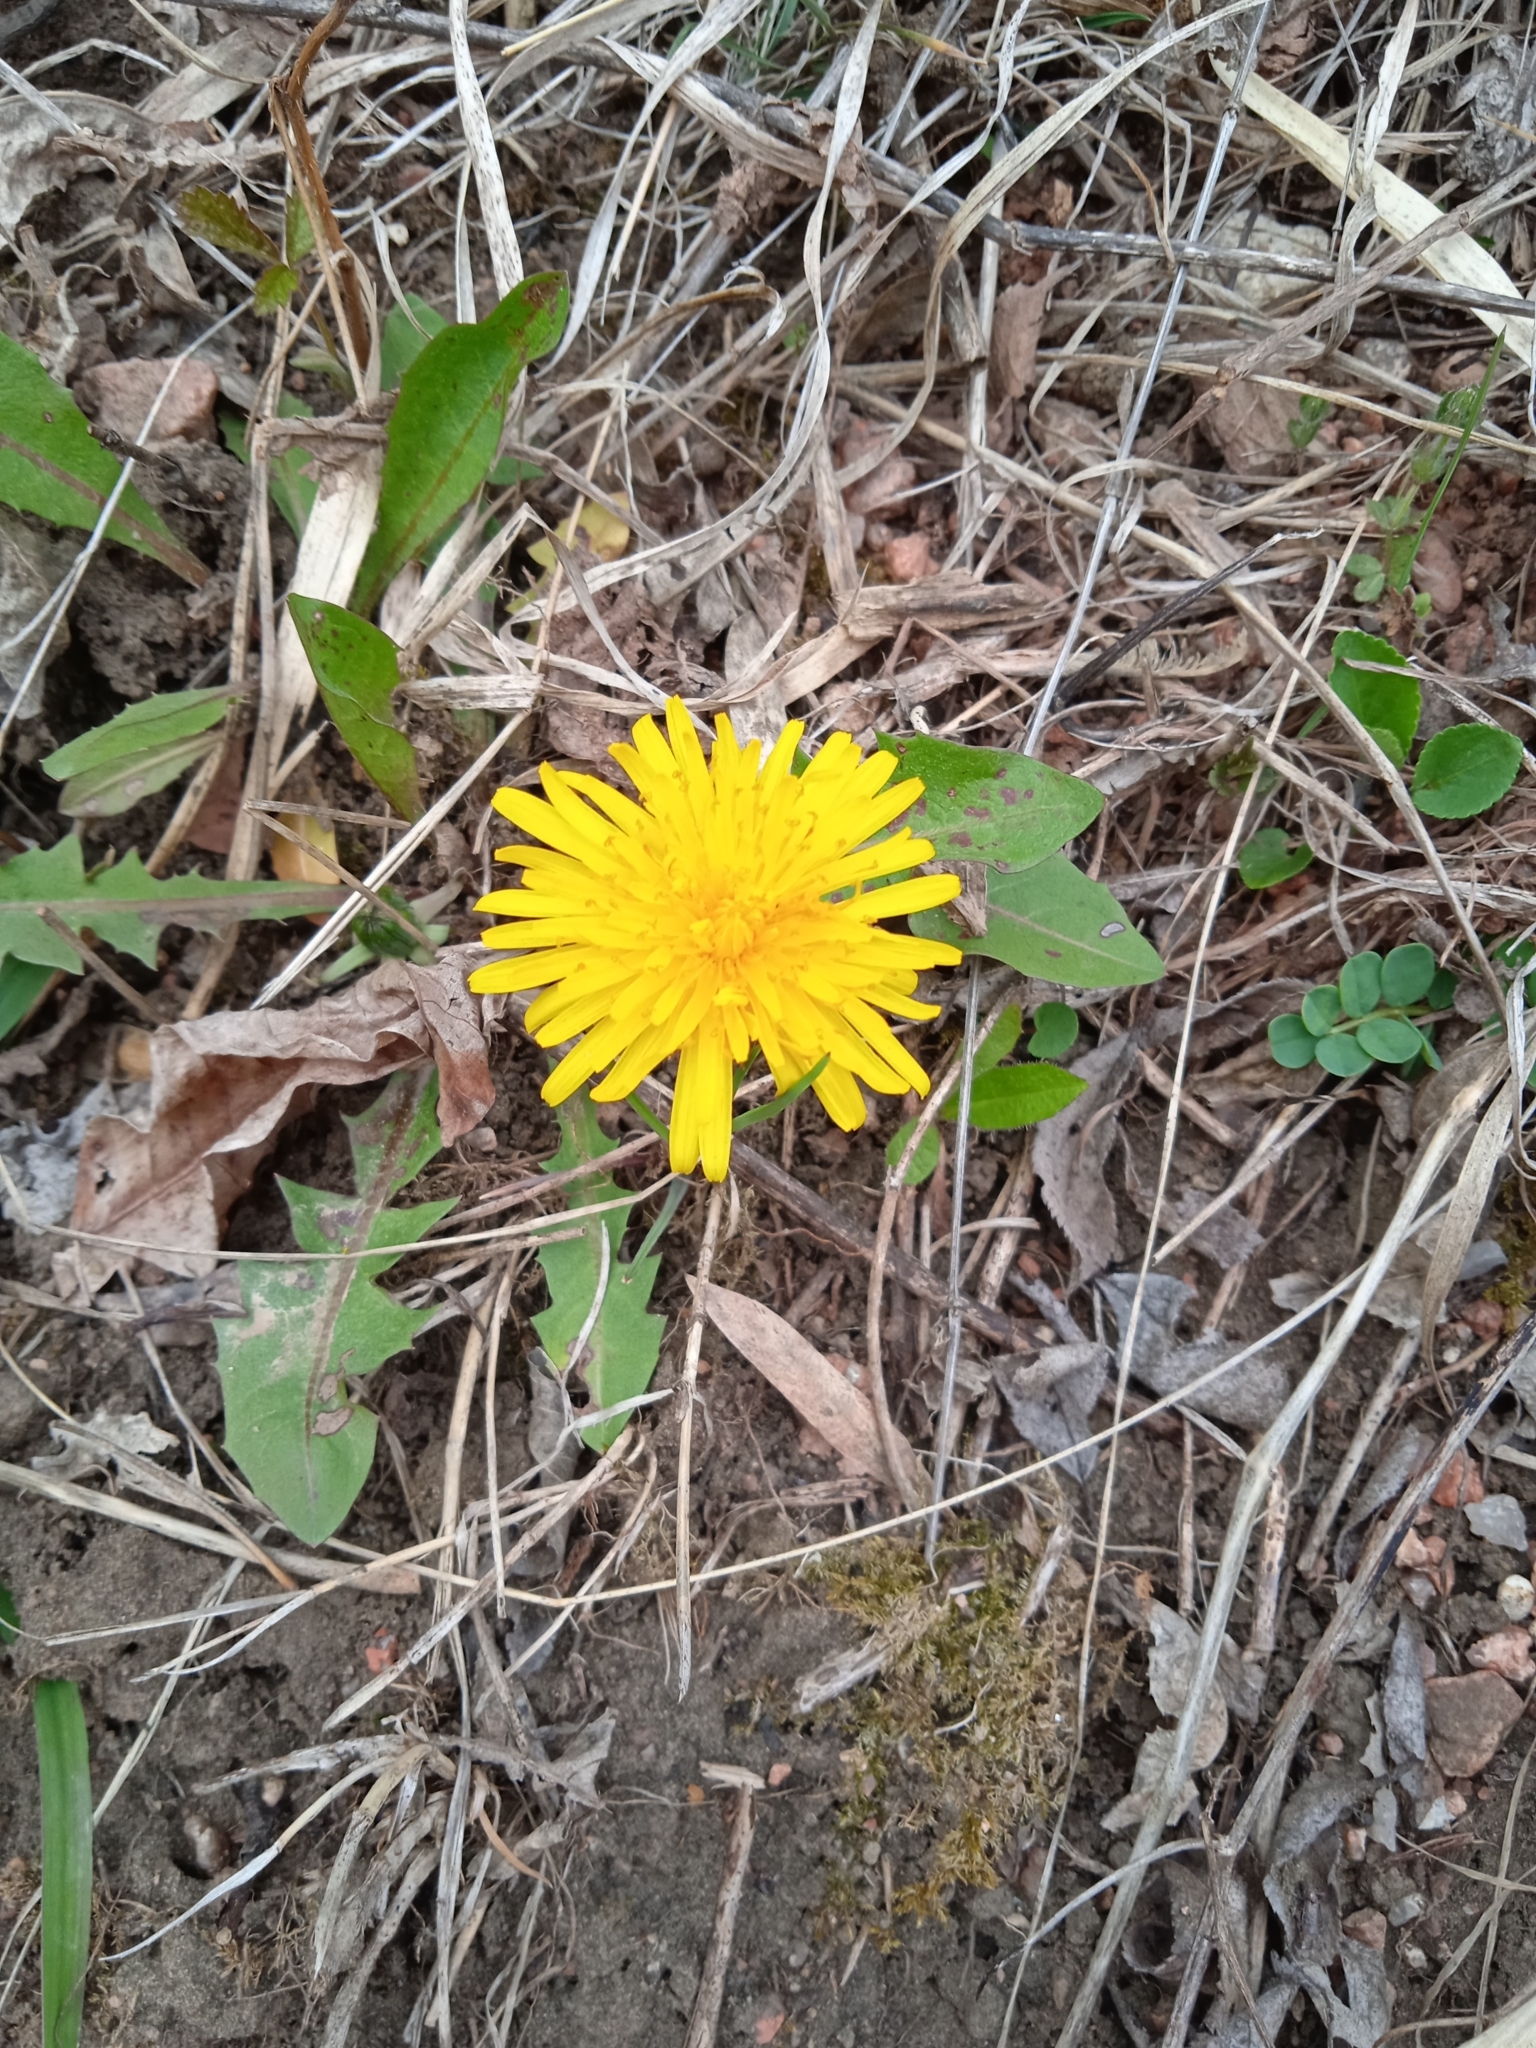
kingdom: Plantae
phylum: Tracheophyta
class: Magnoliopsida
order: Asterales
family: Asteraceae
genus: Taraxacum
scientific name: Taraxacum
